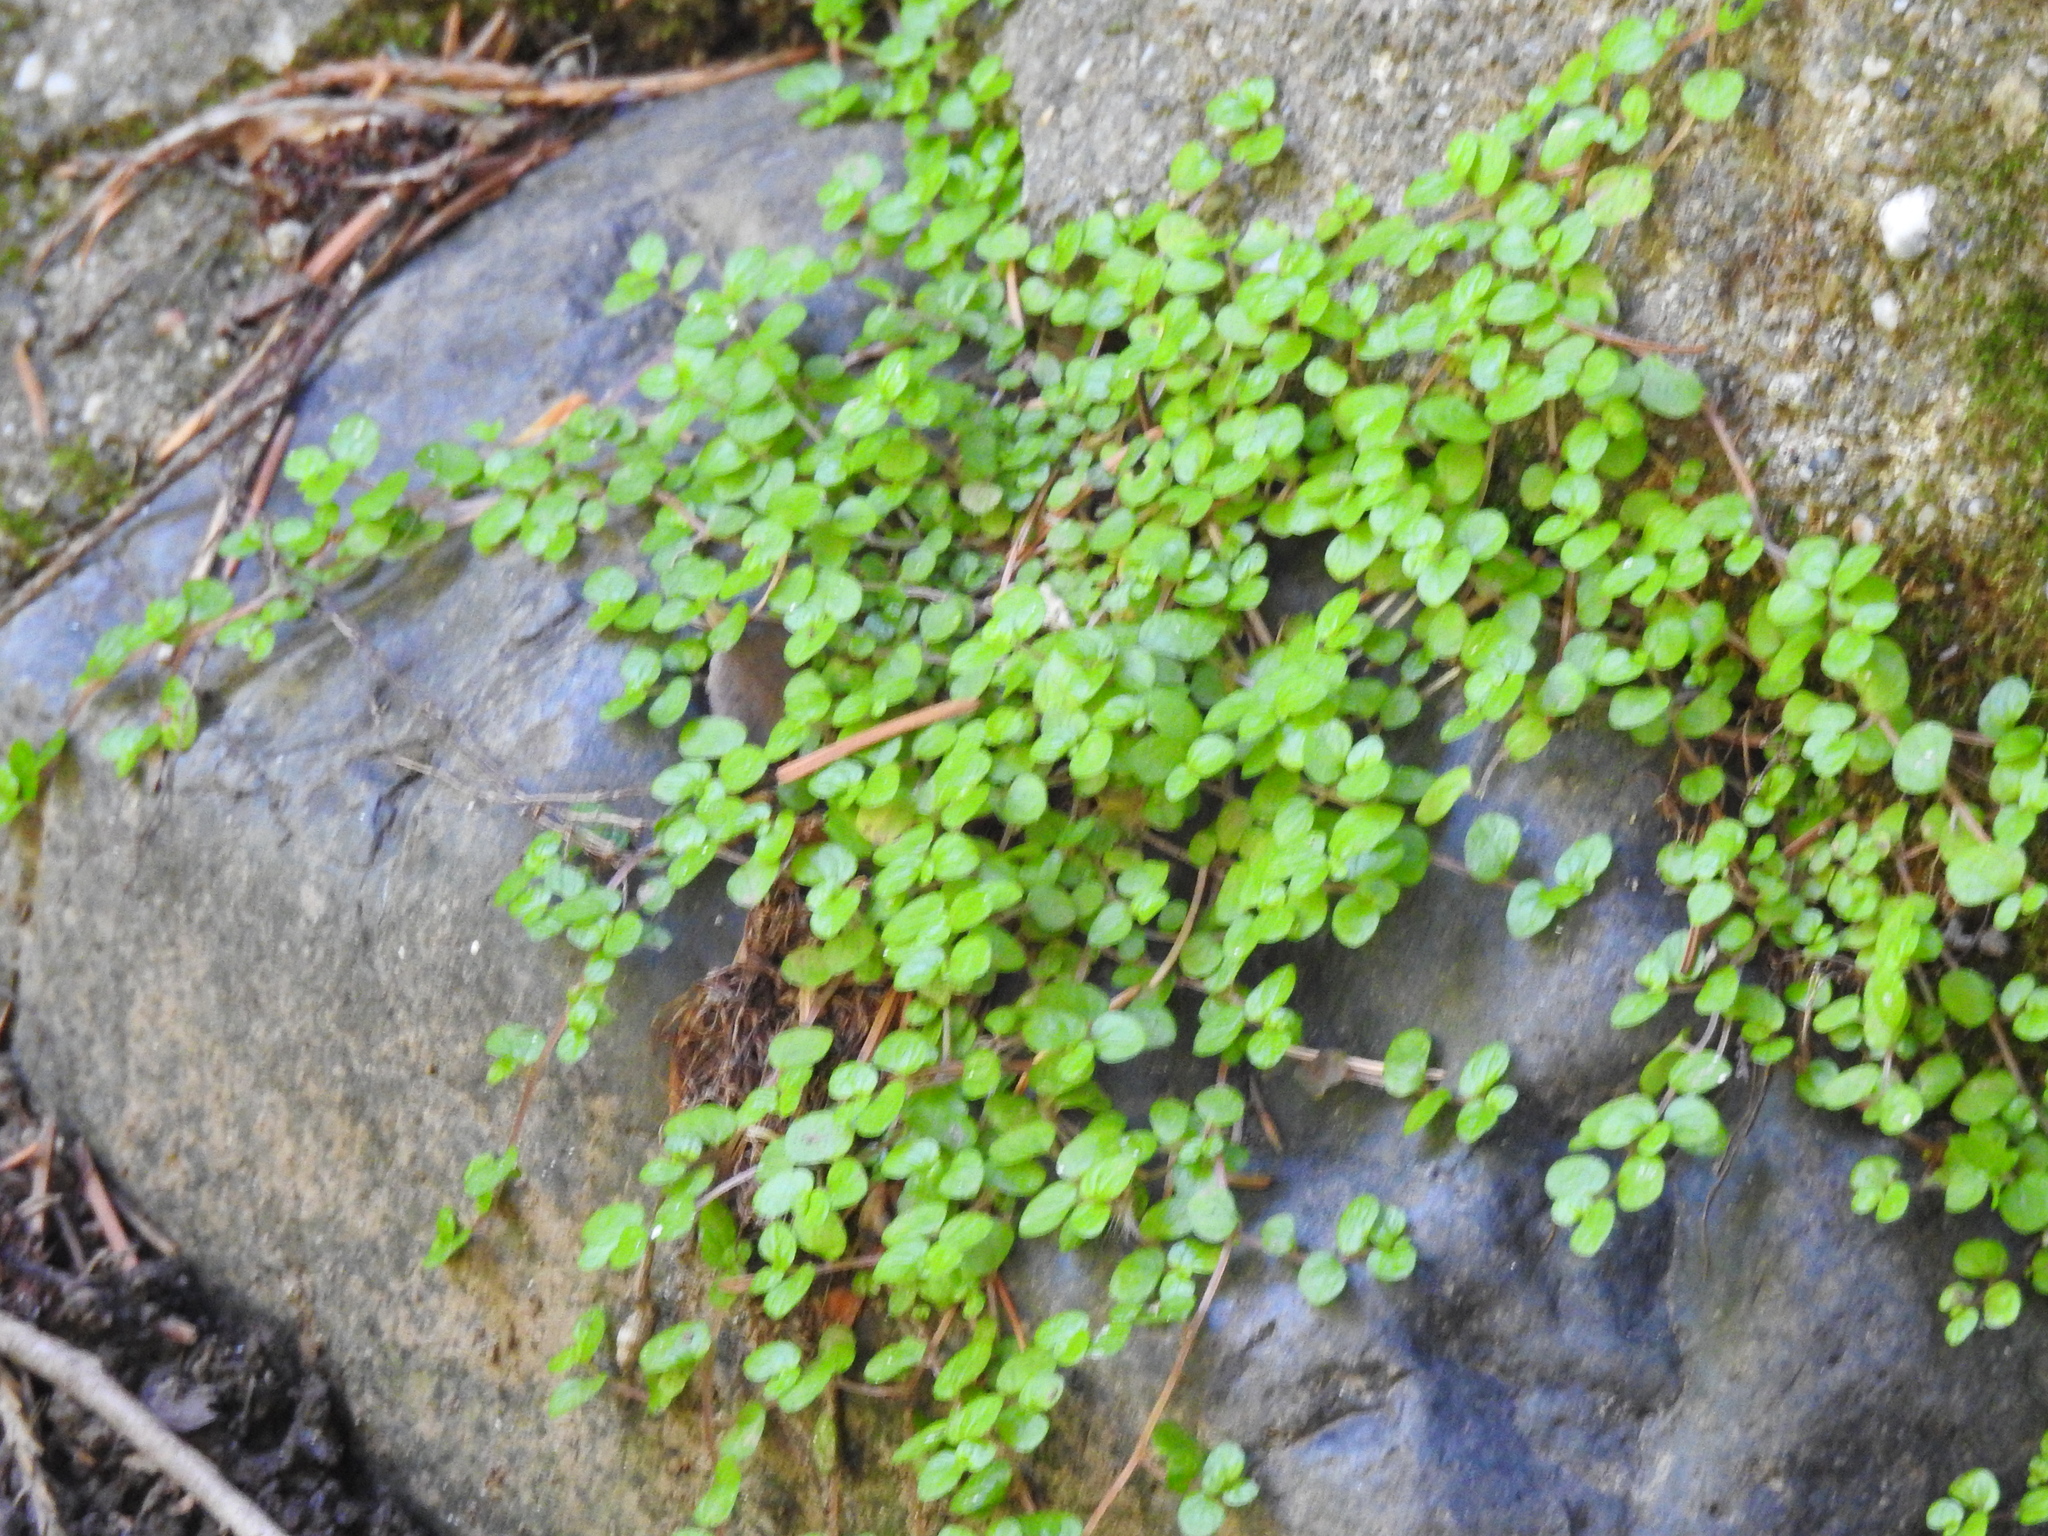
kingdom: Plantae
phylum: Tracheophyta
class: Magnoliopsida
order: Rosales
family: Urticaceae
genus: Soleirolia
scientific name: Soleirolia soleirolii
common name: Mind-your-own-business
